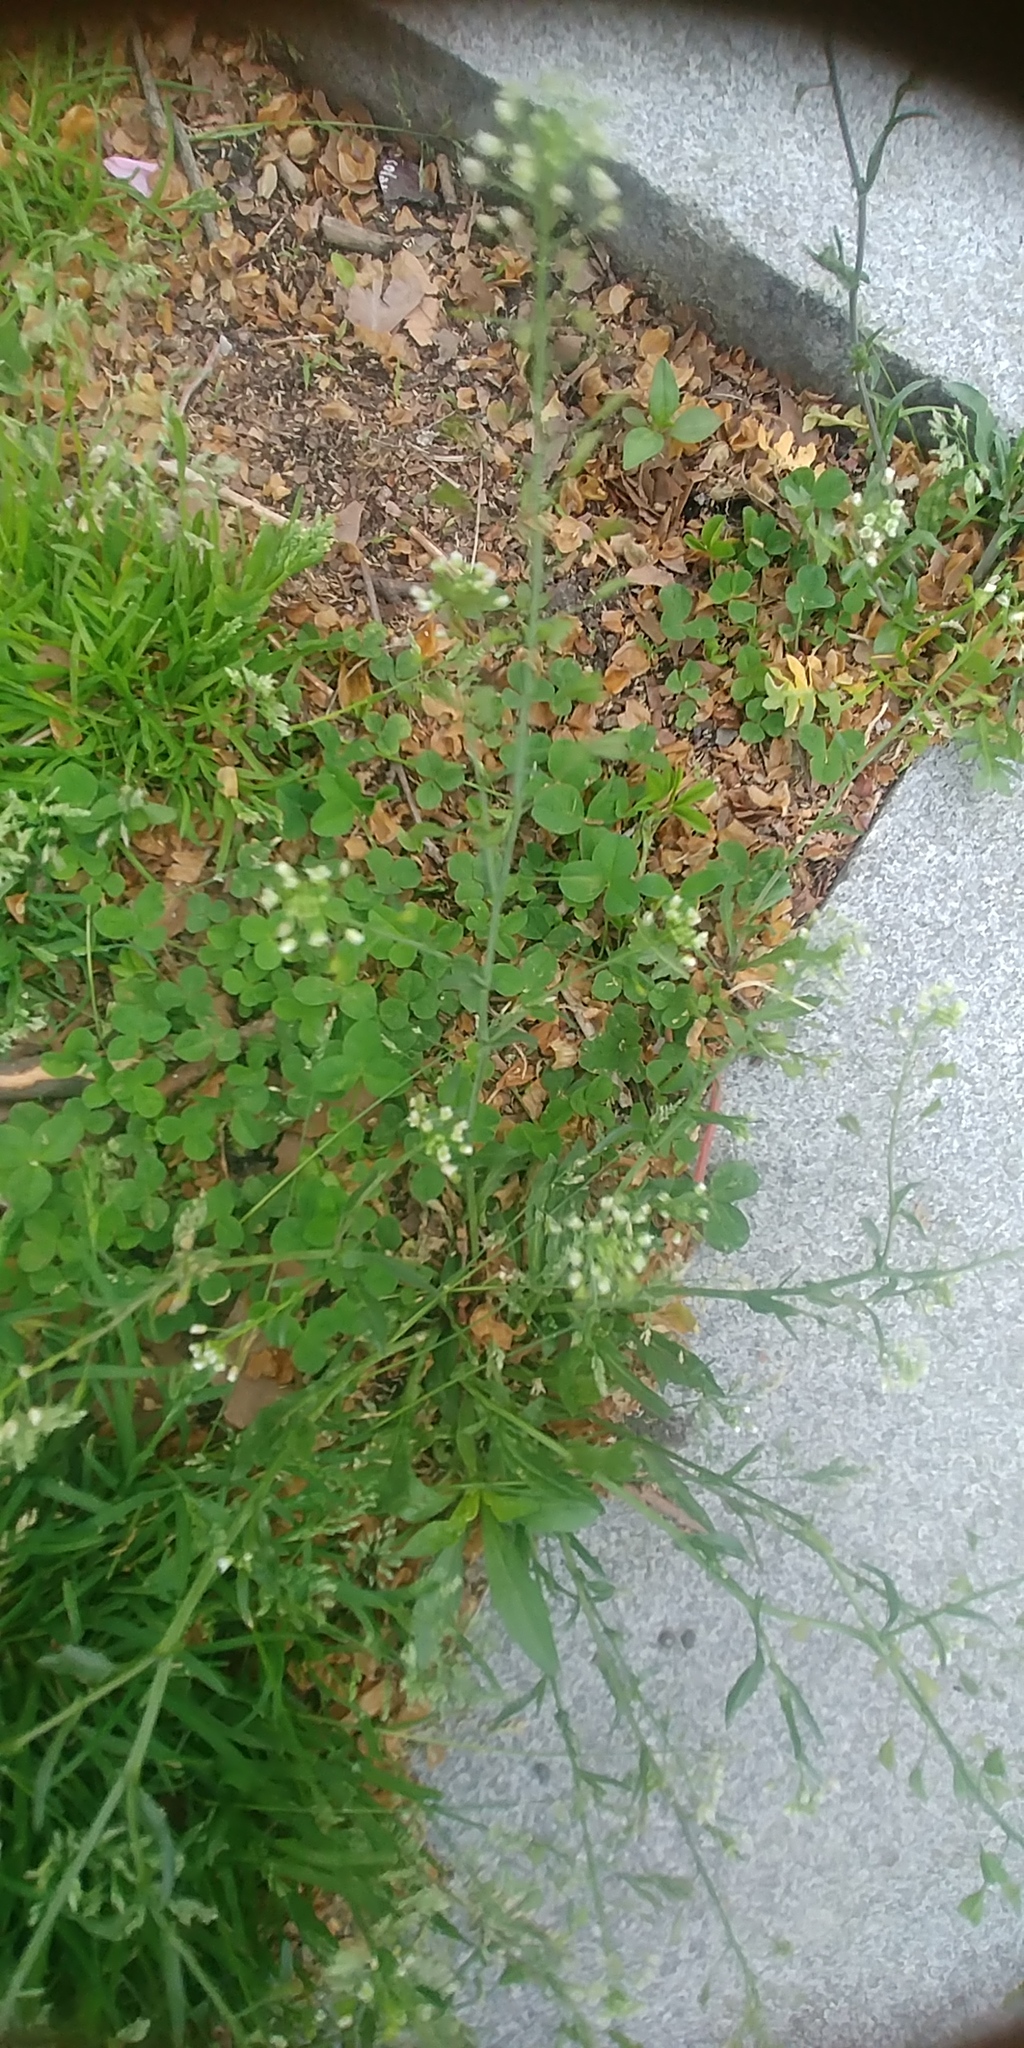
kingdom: Plantae
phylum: Tracheophyta
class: Magnoliopsida
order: Brassicales
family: Brassicaceae
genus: Capsella
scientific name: Capsella bursa-pastoris
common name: Shepherd's purse
